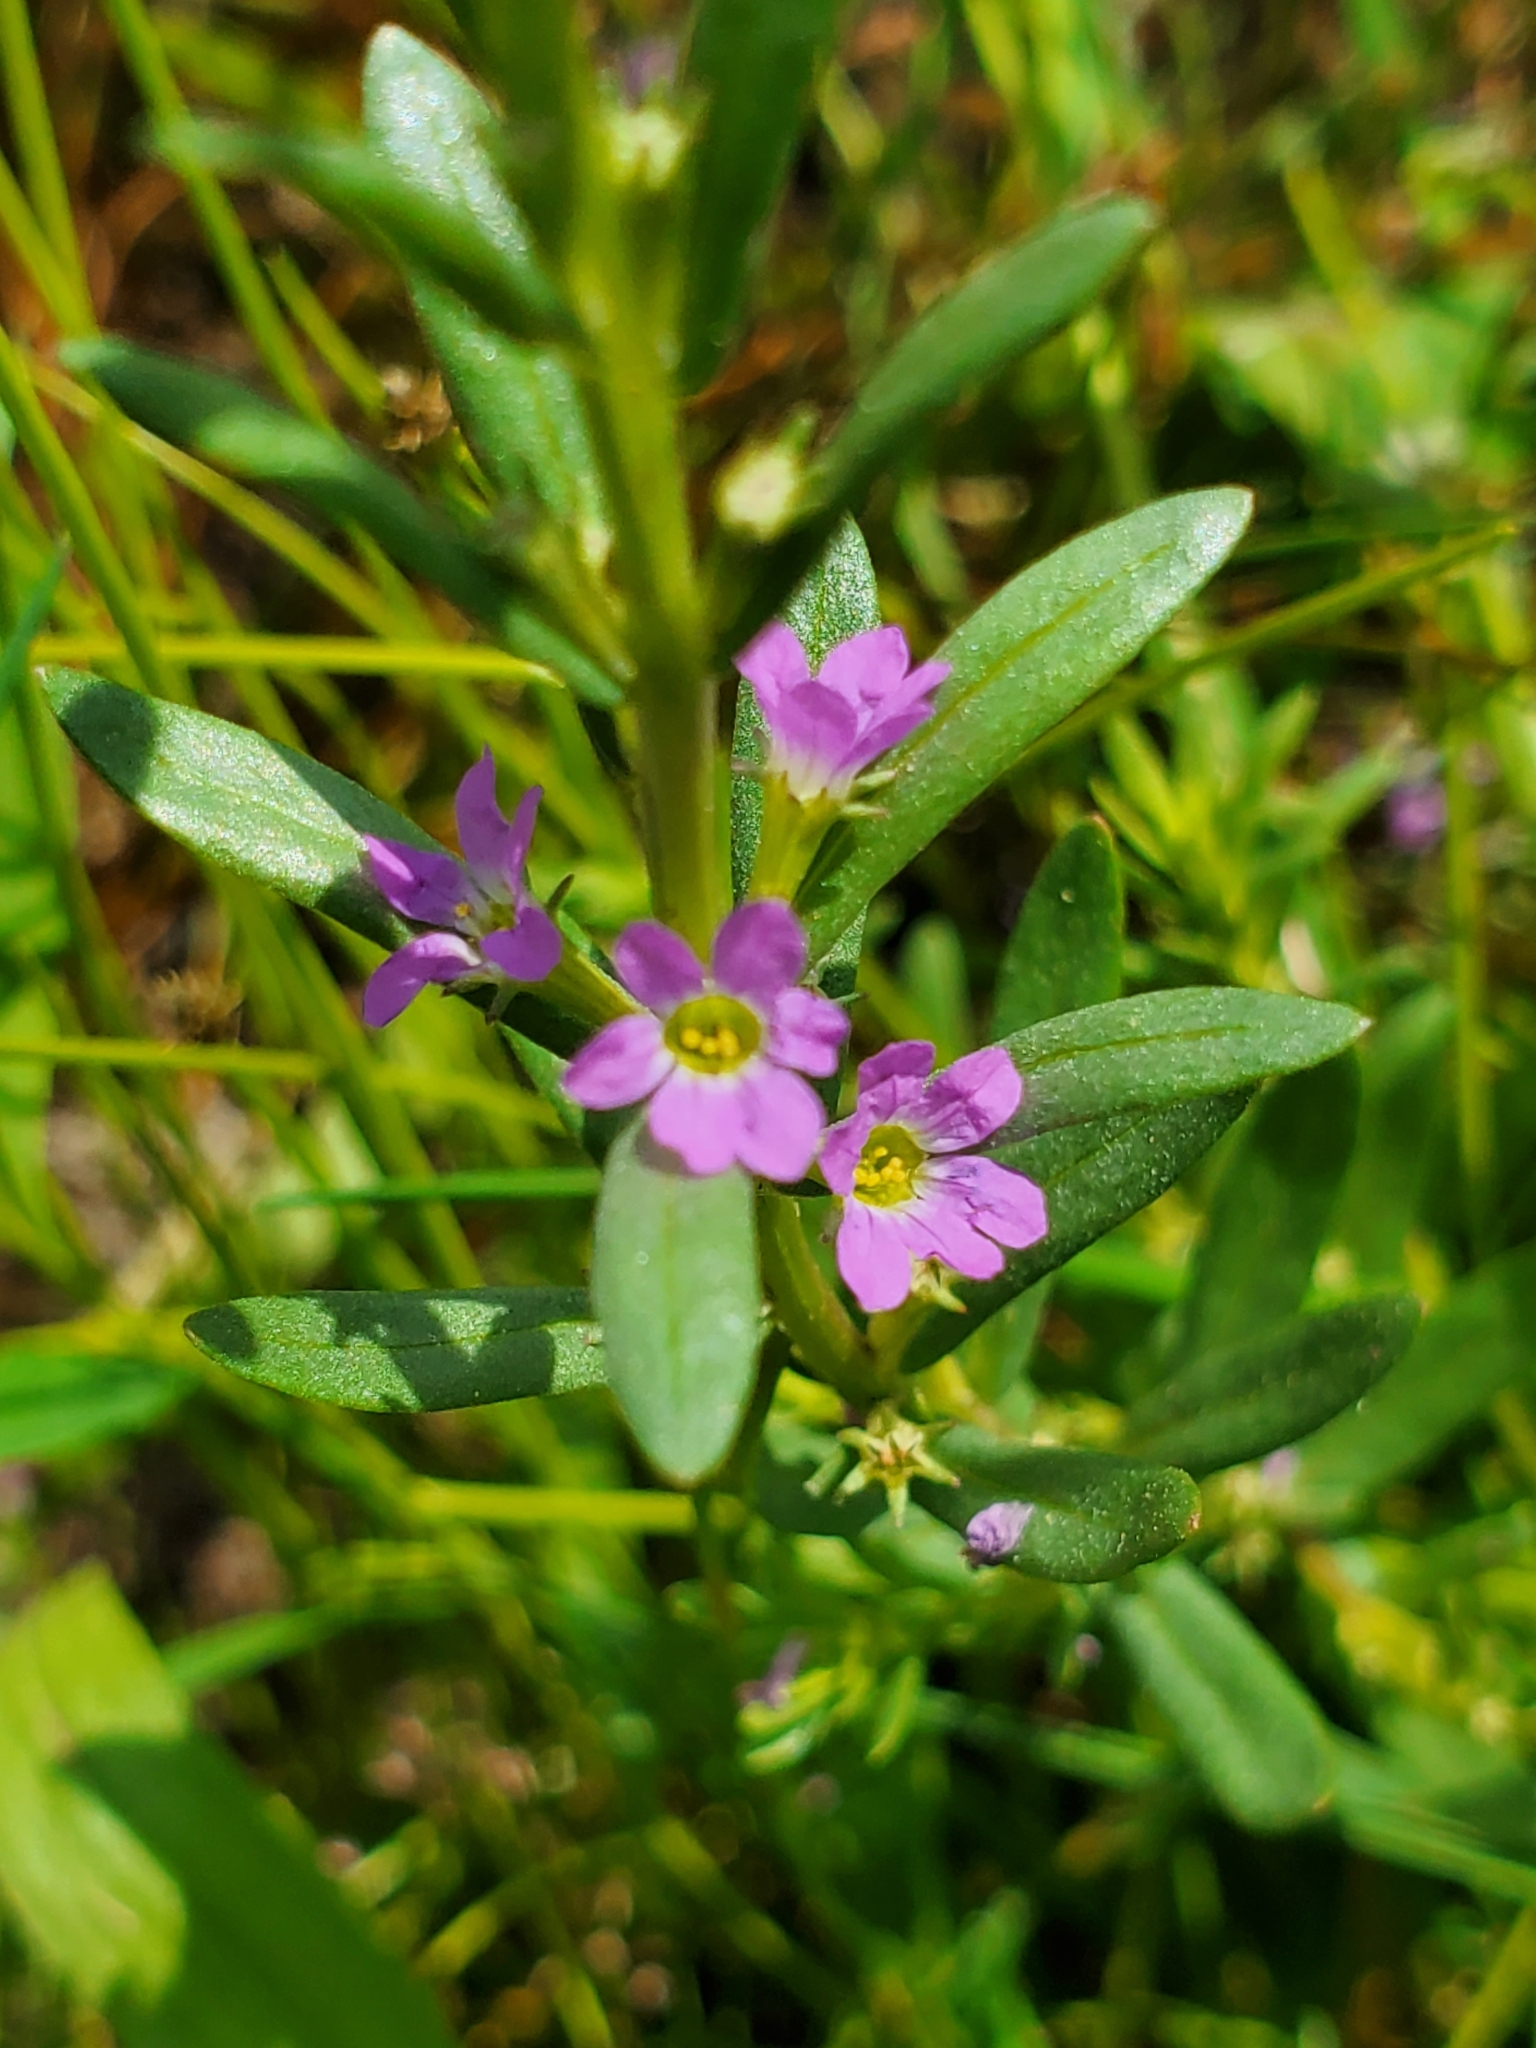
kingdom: Plantae
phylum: Tracheophyta
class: Magnoliopsida
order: Myrtales
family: Lythraceae
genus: Lythrum
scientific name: Lythrum hyssopifolia
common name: Grass-poly
